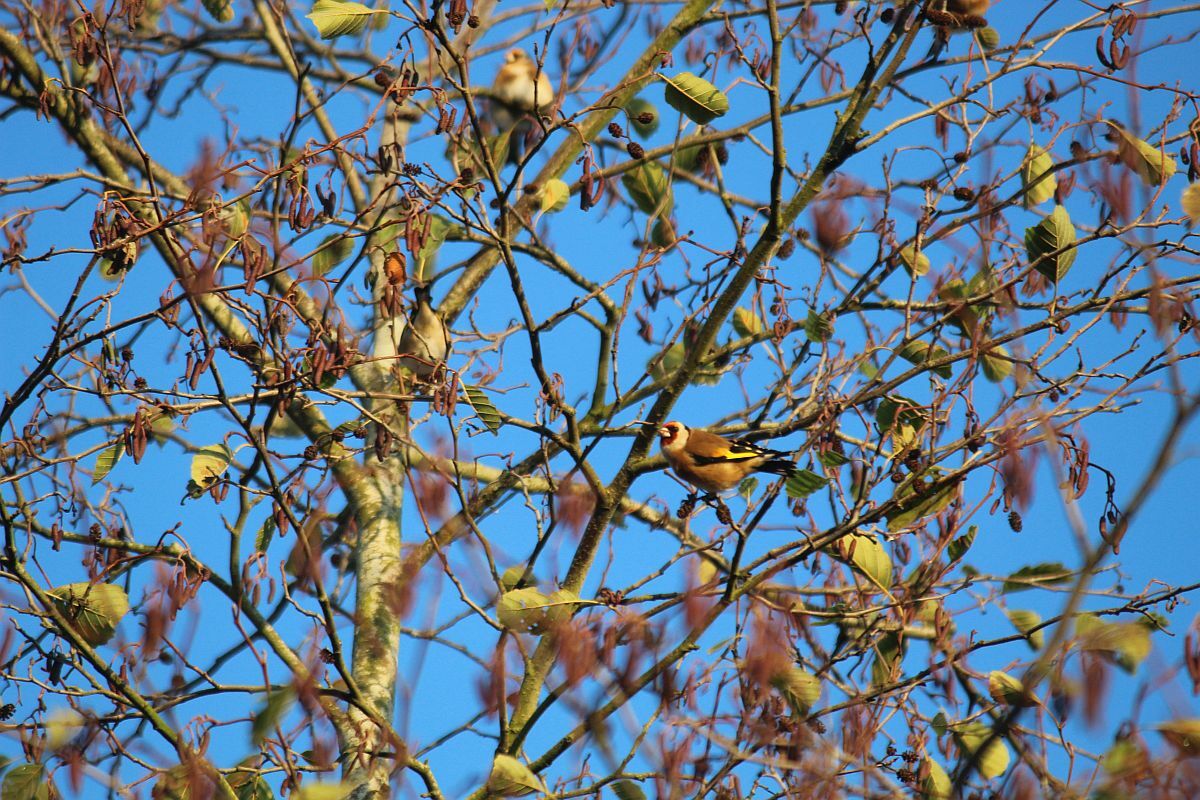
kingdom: Animalia
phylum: Chordata
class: Aves
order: Passeriformes
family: Fringillidae
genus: Carduelis
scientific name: Carduelis carduelis
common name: European goldfinch
